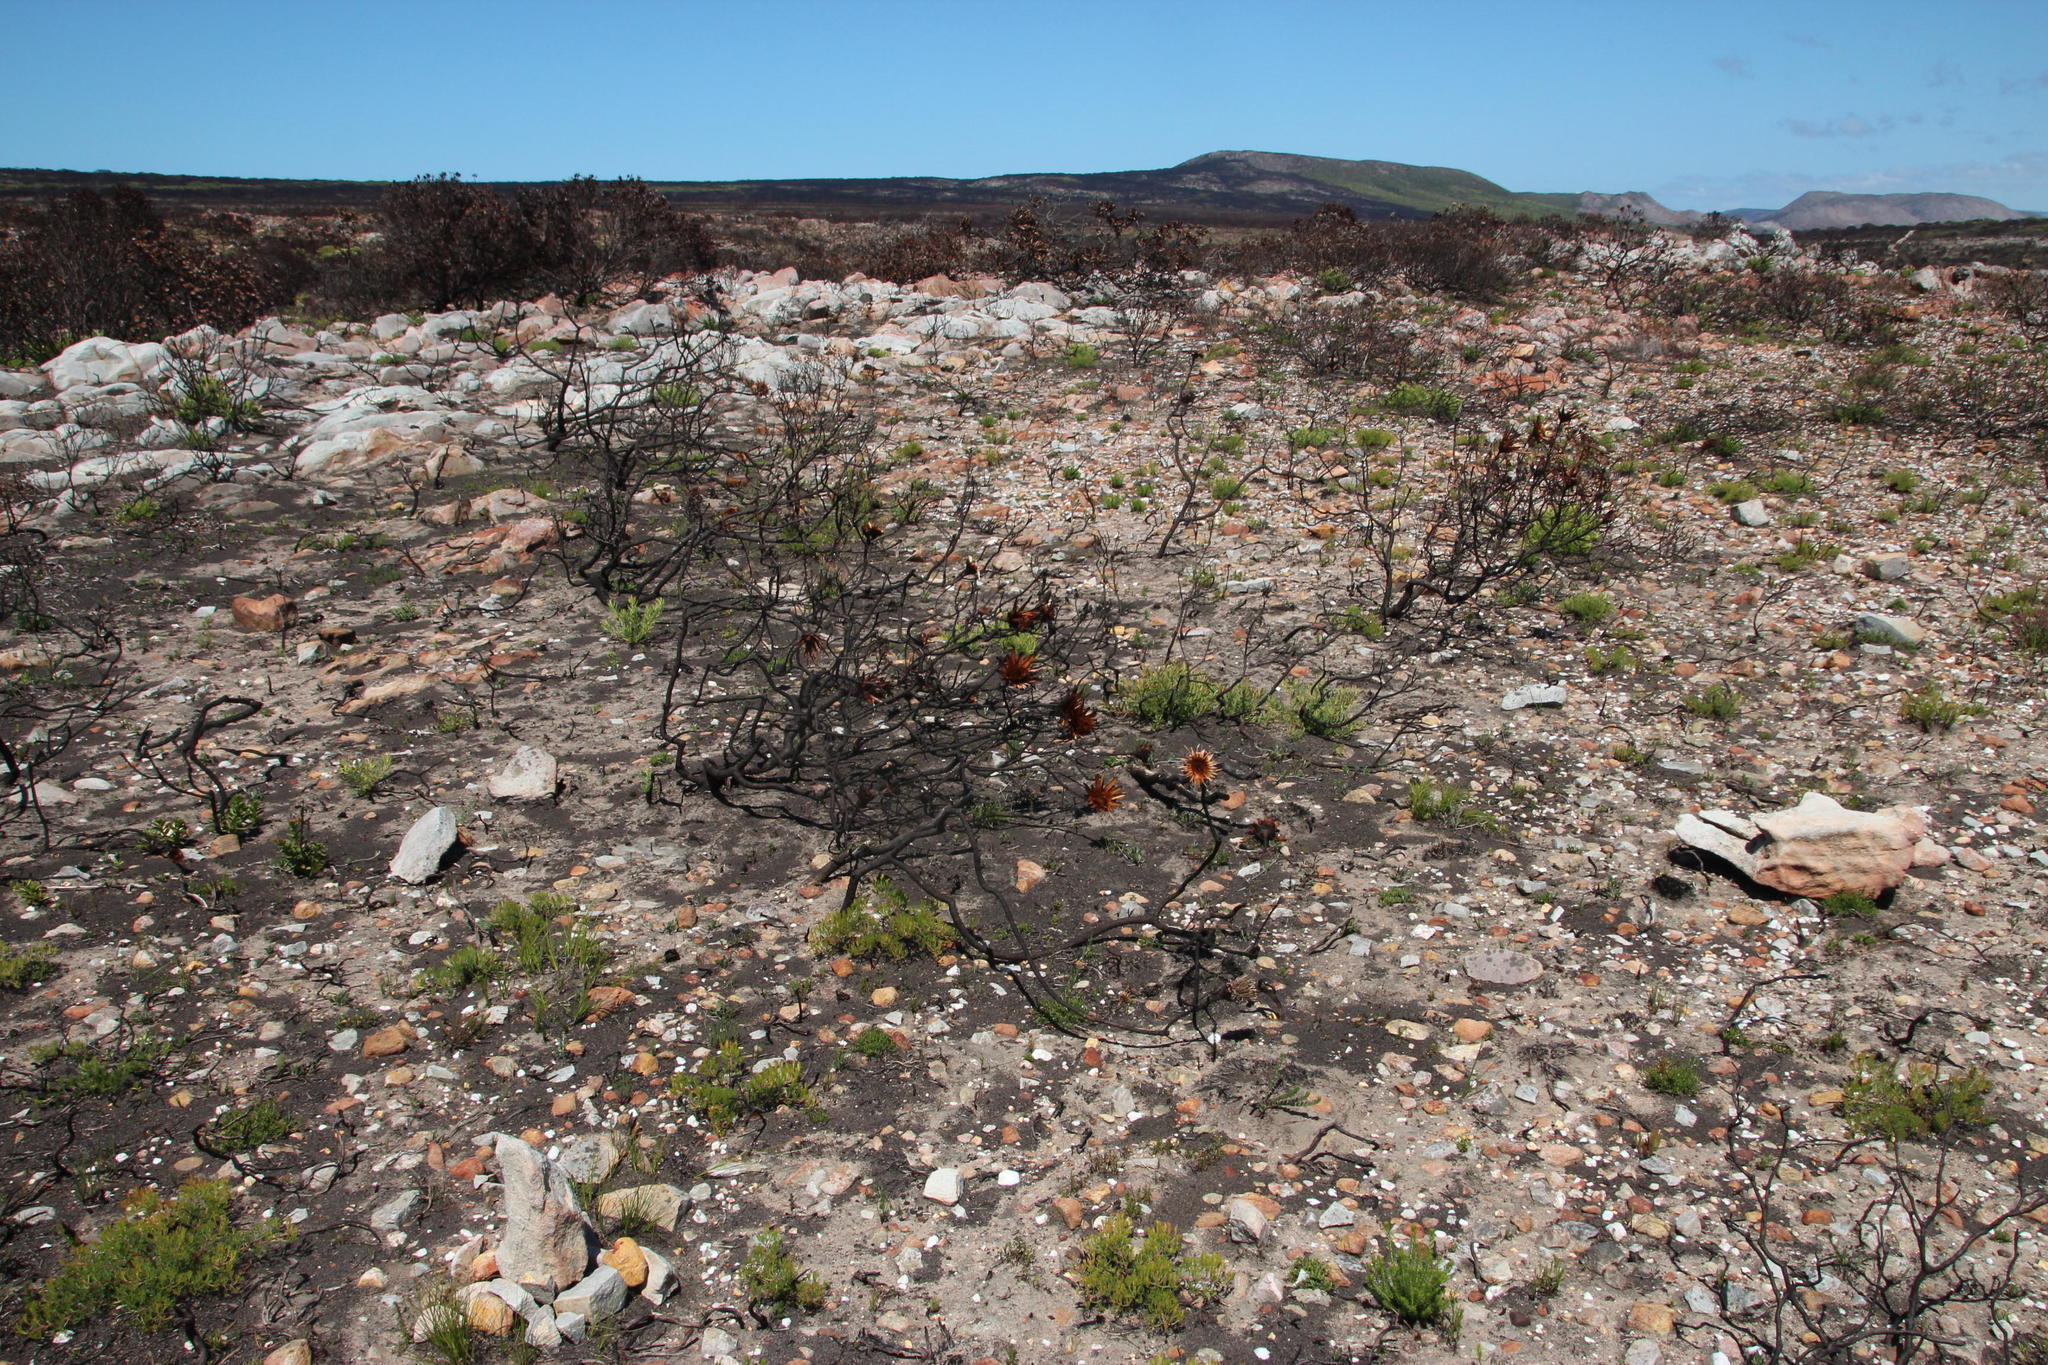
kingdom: Plantae
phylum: Tracheophyta
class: Magnoliopsida
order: Proteales
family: Proteaceae
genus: Protea
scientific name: Protea repens
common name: Sugarbush
